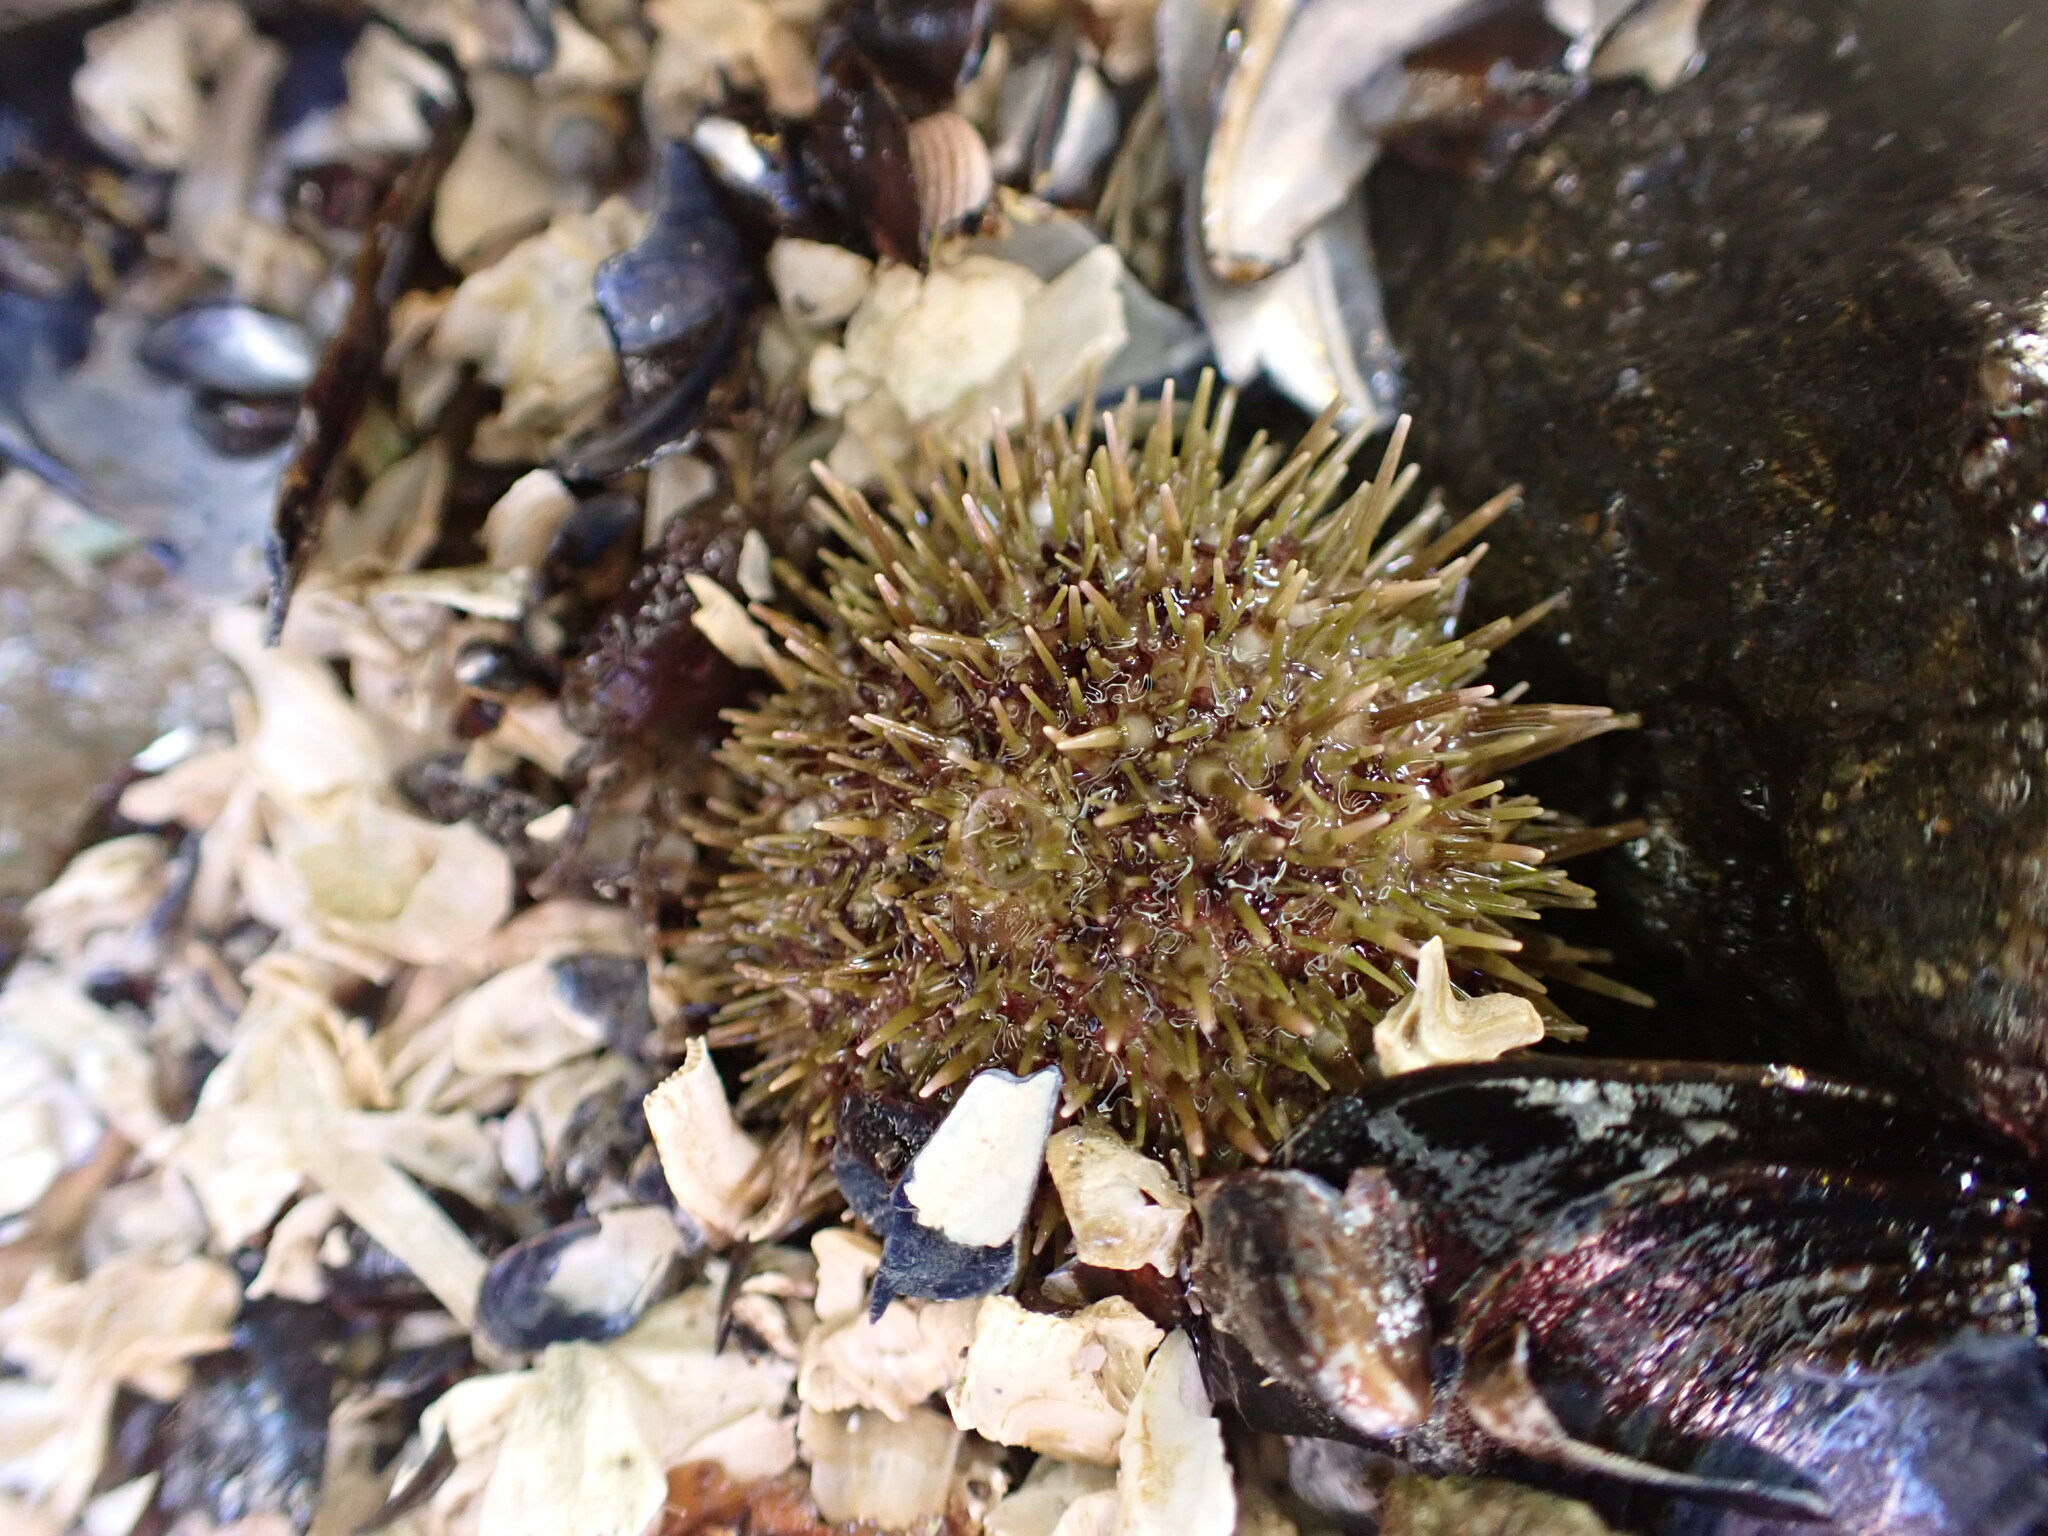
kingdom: Animalia
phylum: Echinodermata
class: Echinoidea
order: Camarodonta
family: Strongylocentrotidae
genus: Strongylocentrotus
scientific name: Strongylocentrotus droebachiensis
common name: Northern sea urchin
